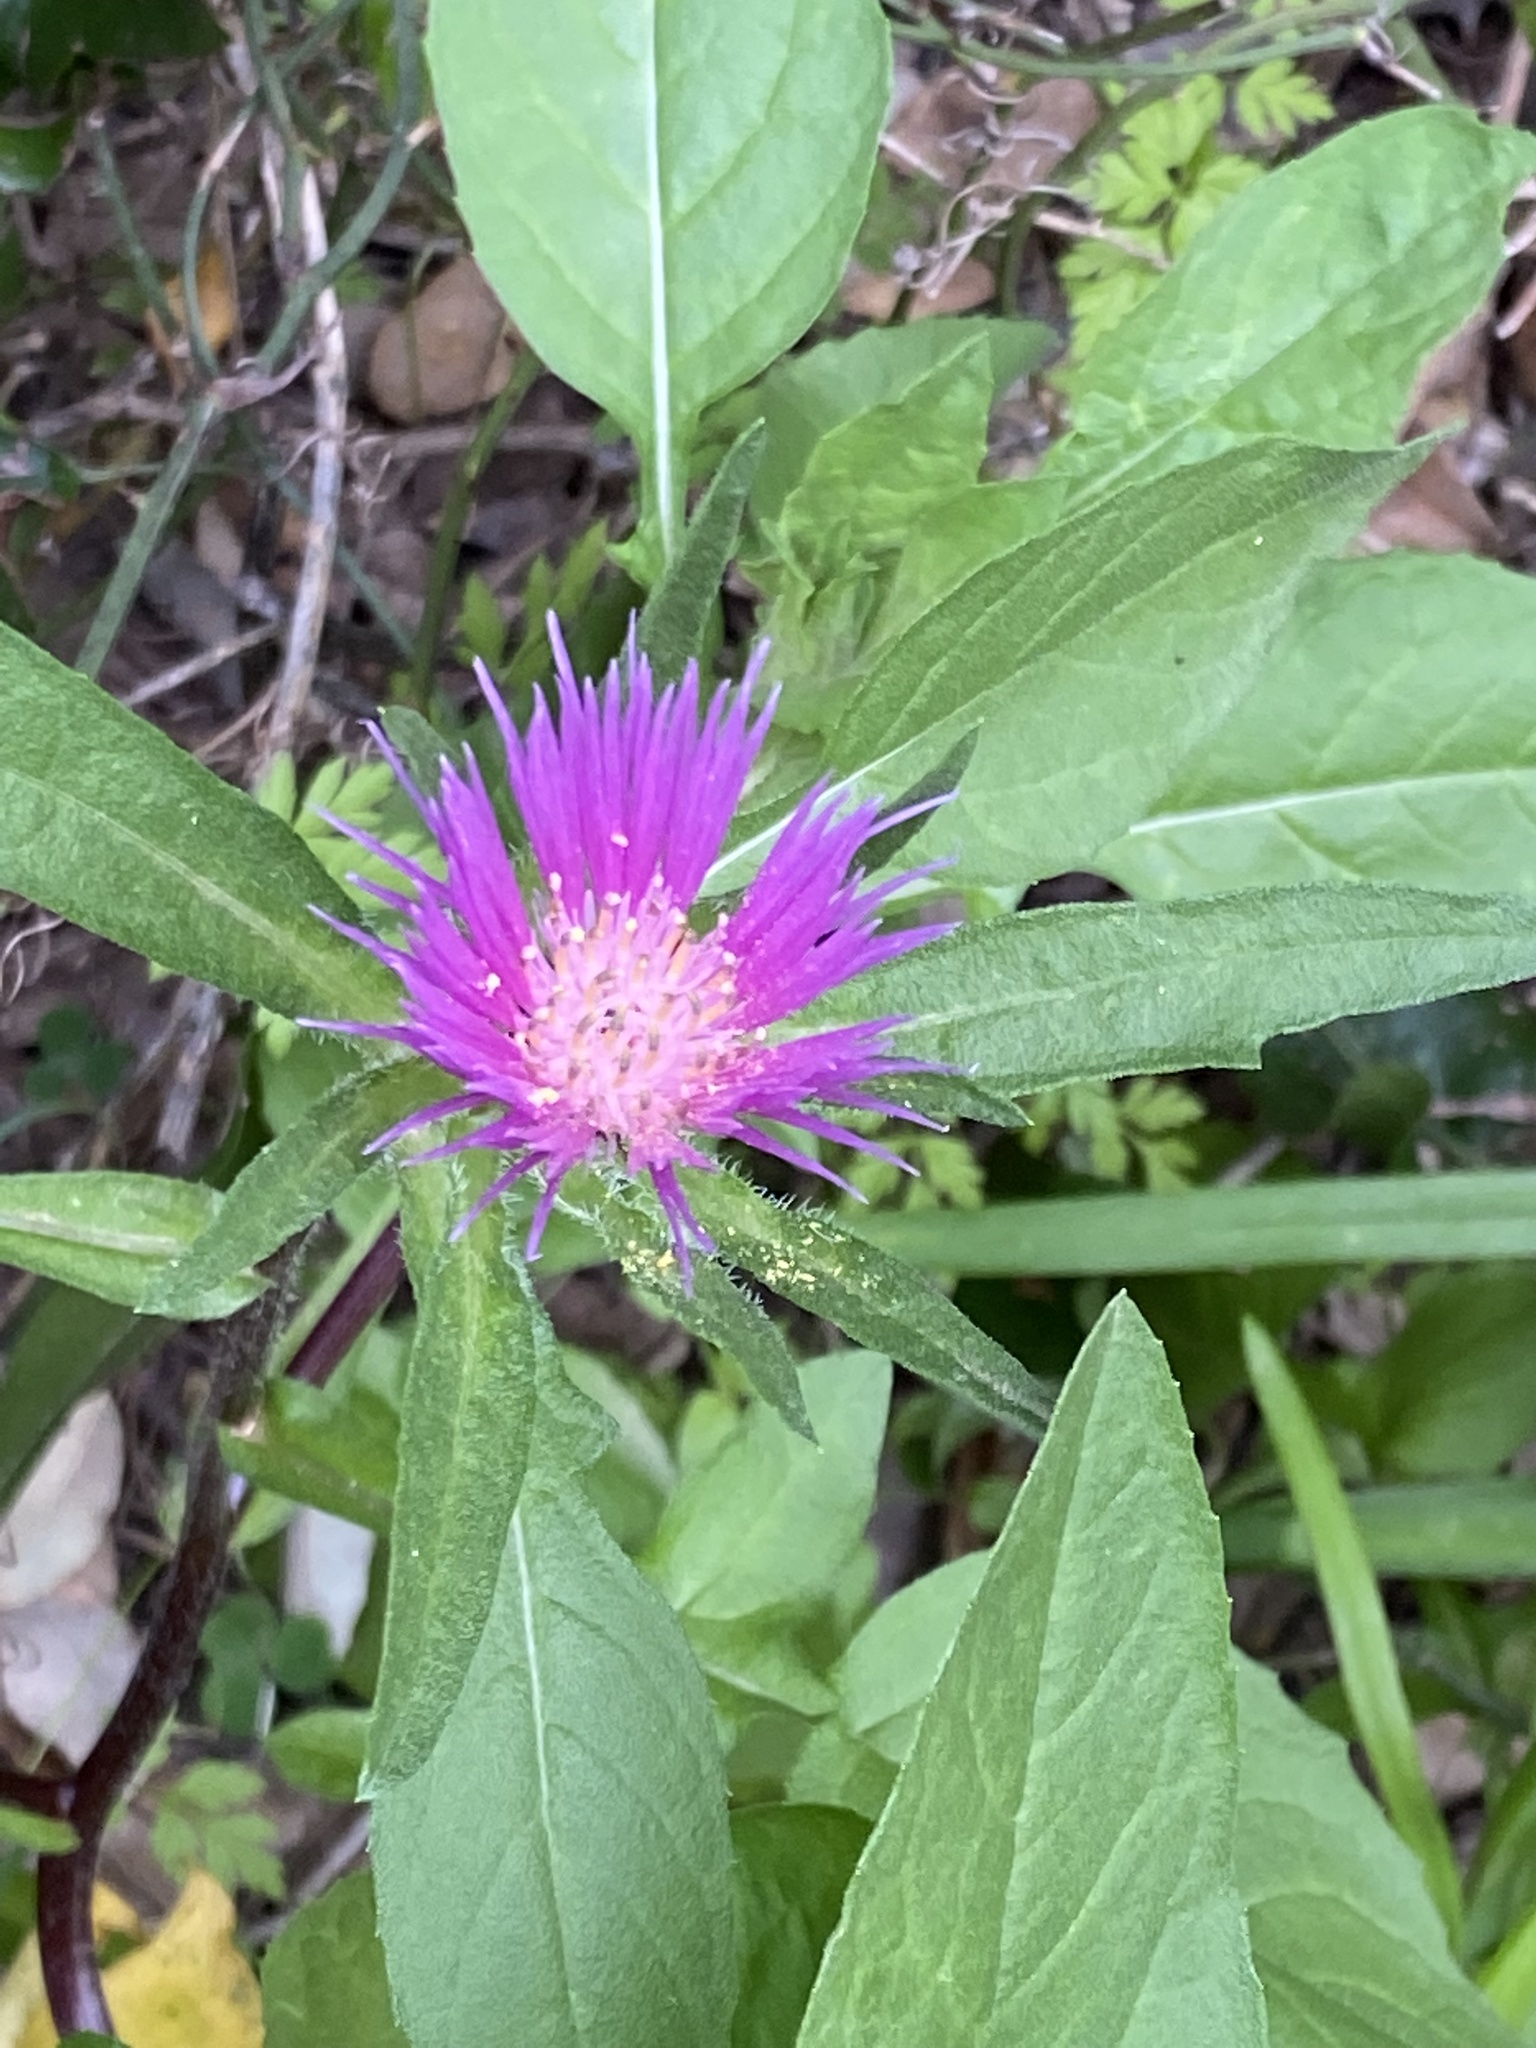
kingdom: Plantae
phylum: Tracheophyta
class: Magnoliopsida
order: Asterales
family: Asteraceae
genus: Centaurea
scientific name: Centaurea pullata
